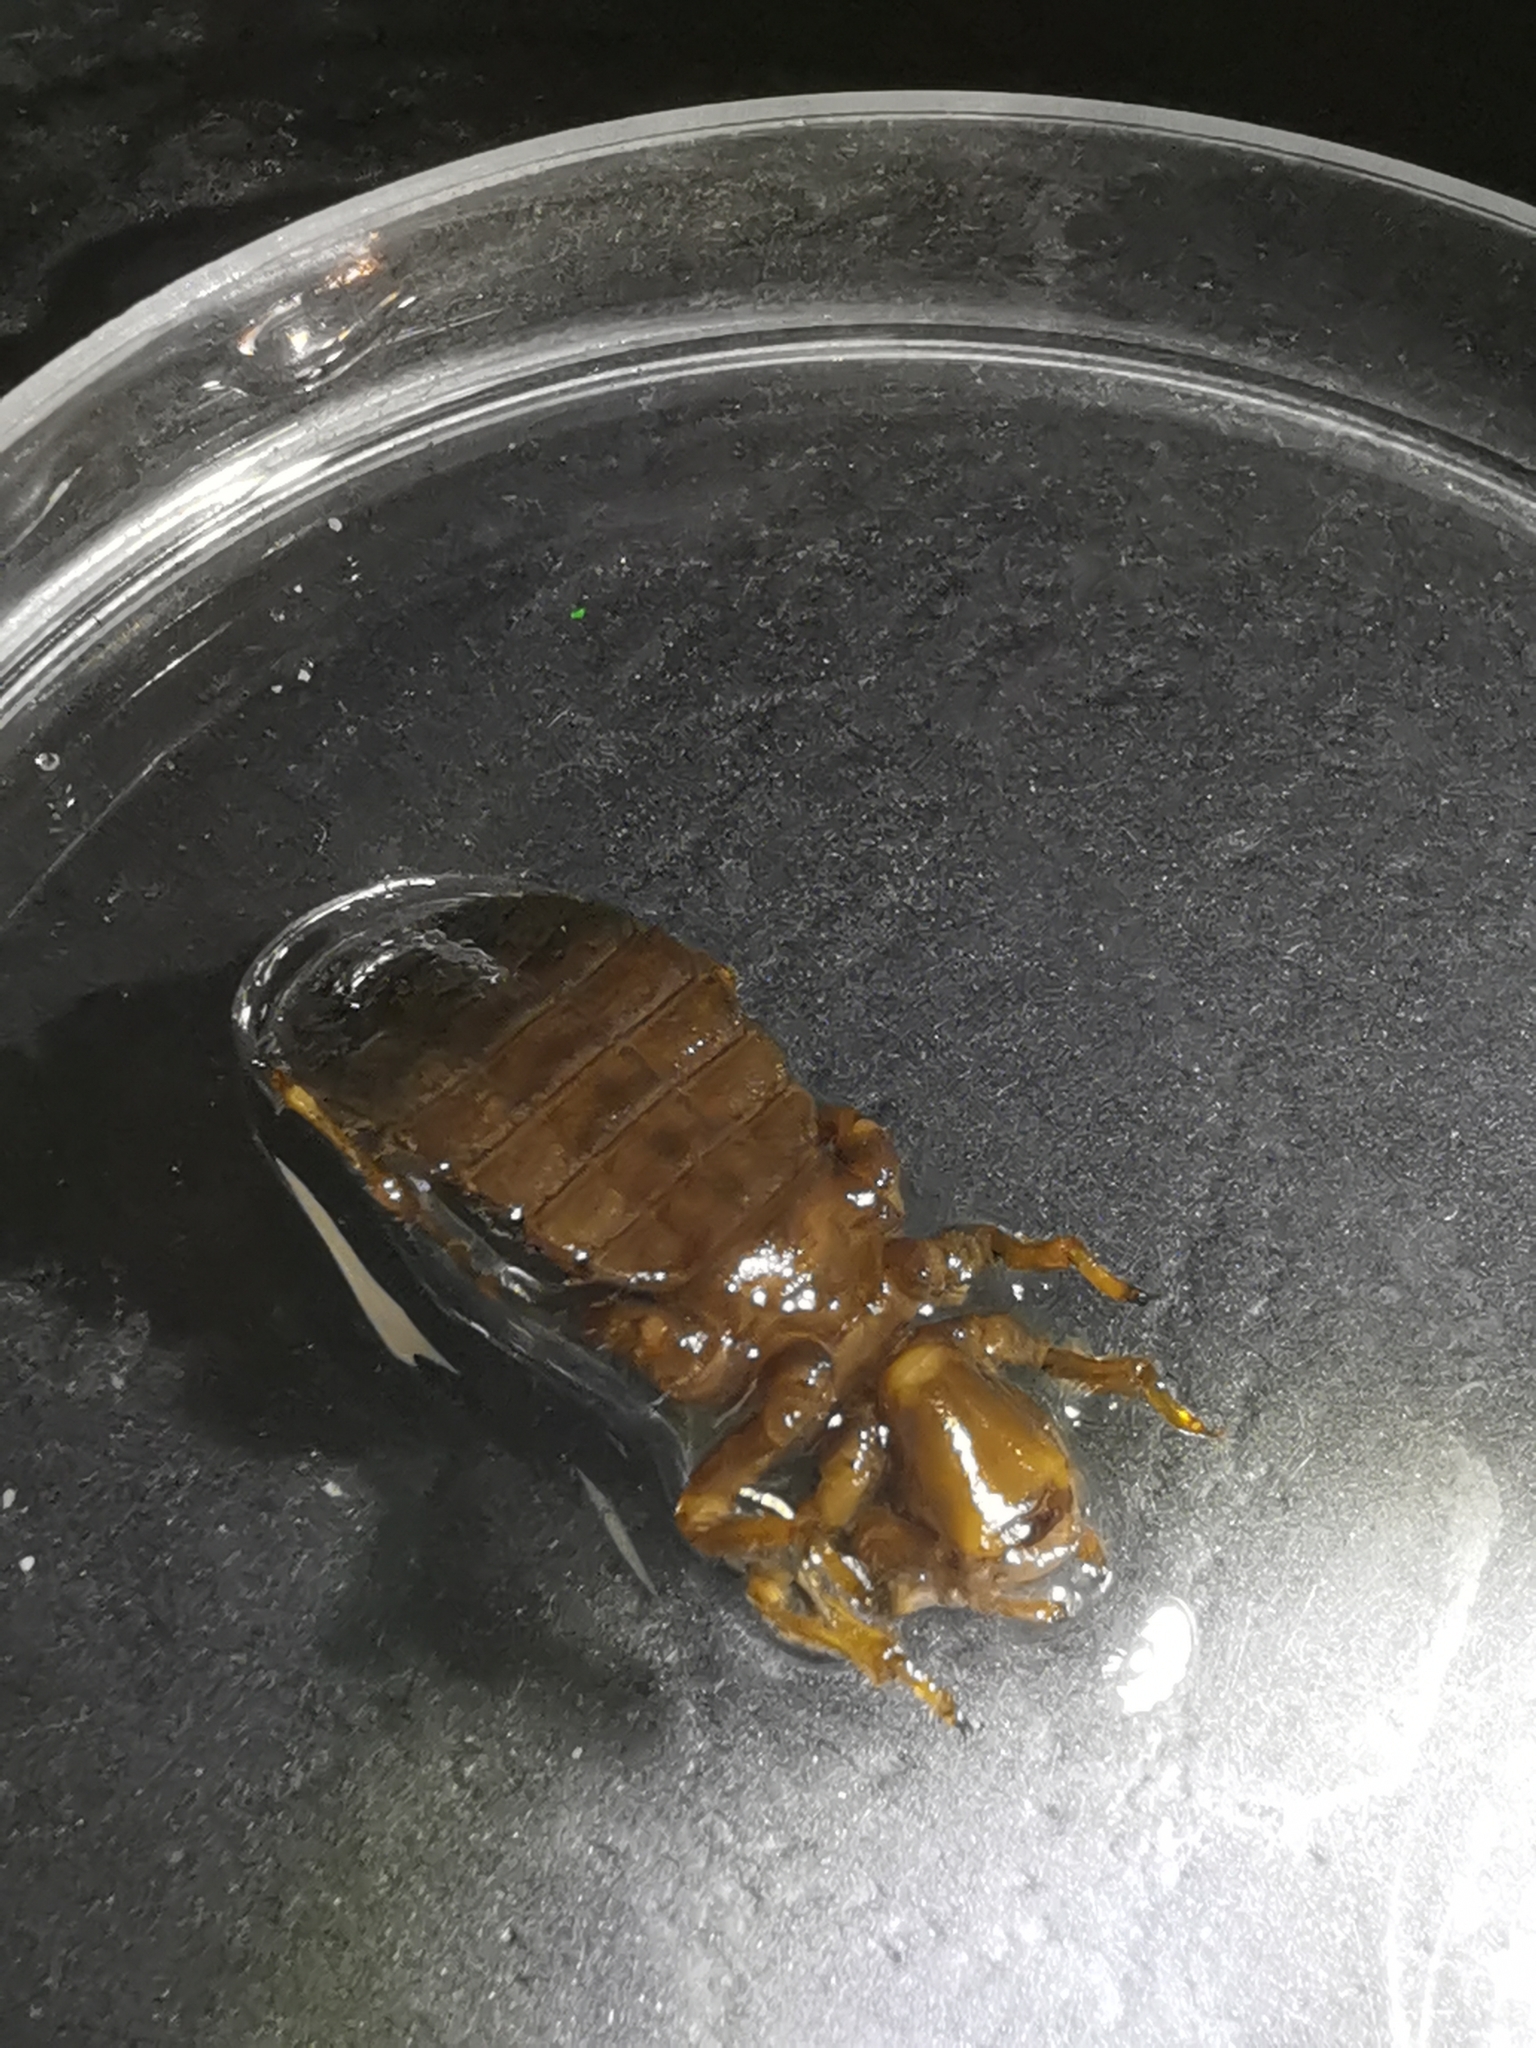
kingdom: Animalia
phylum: Arthropoda
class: Insecta
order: Odonata
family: Gomphidae
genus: Onychogomphus
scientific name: Onychogomphus forcipatus
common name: Small pincertail
